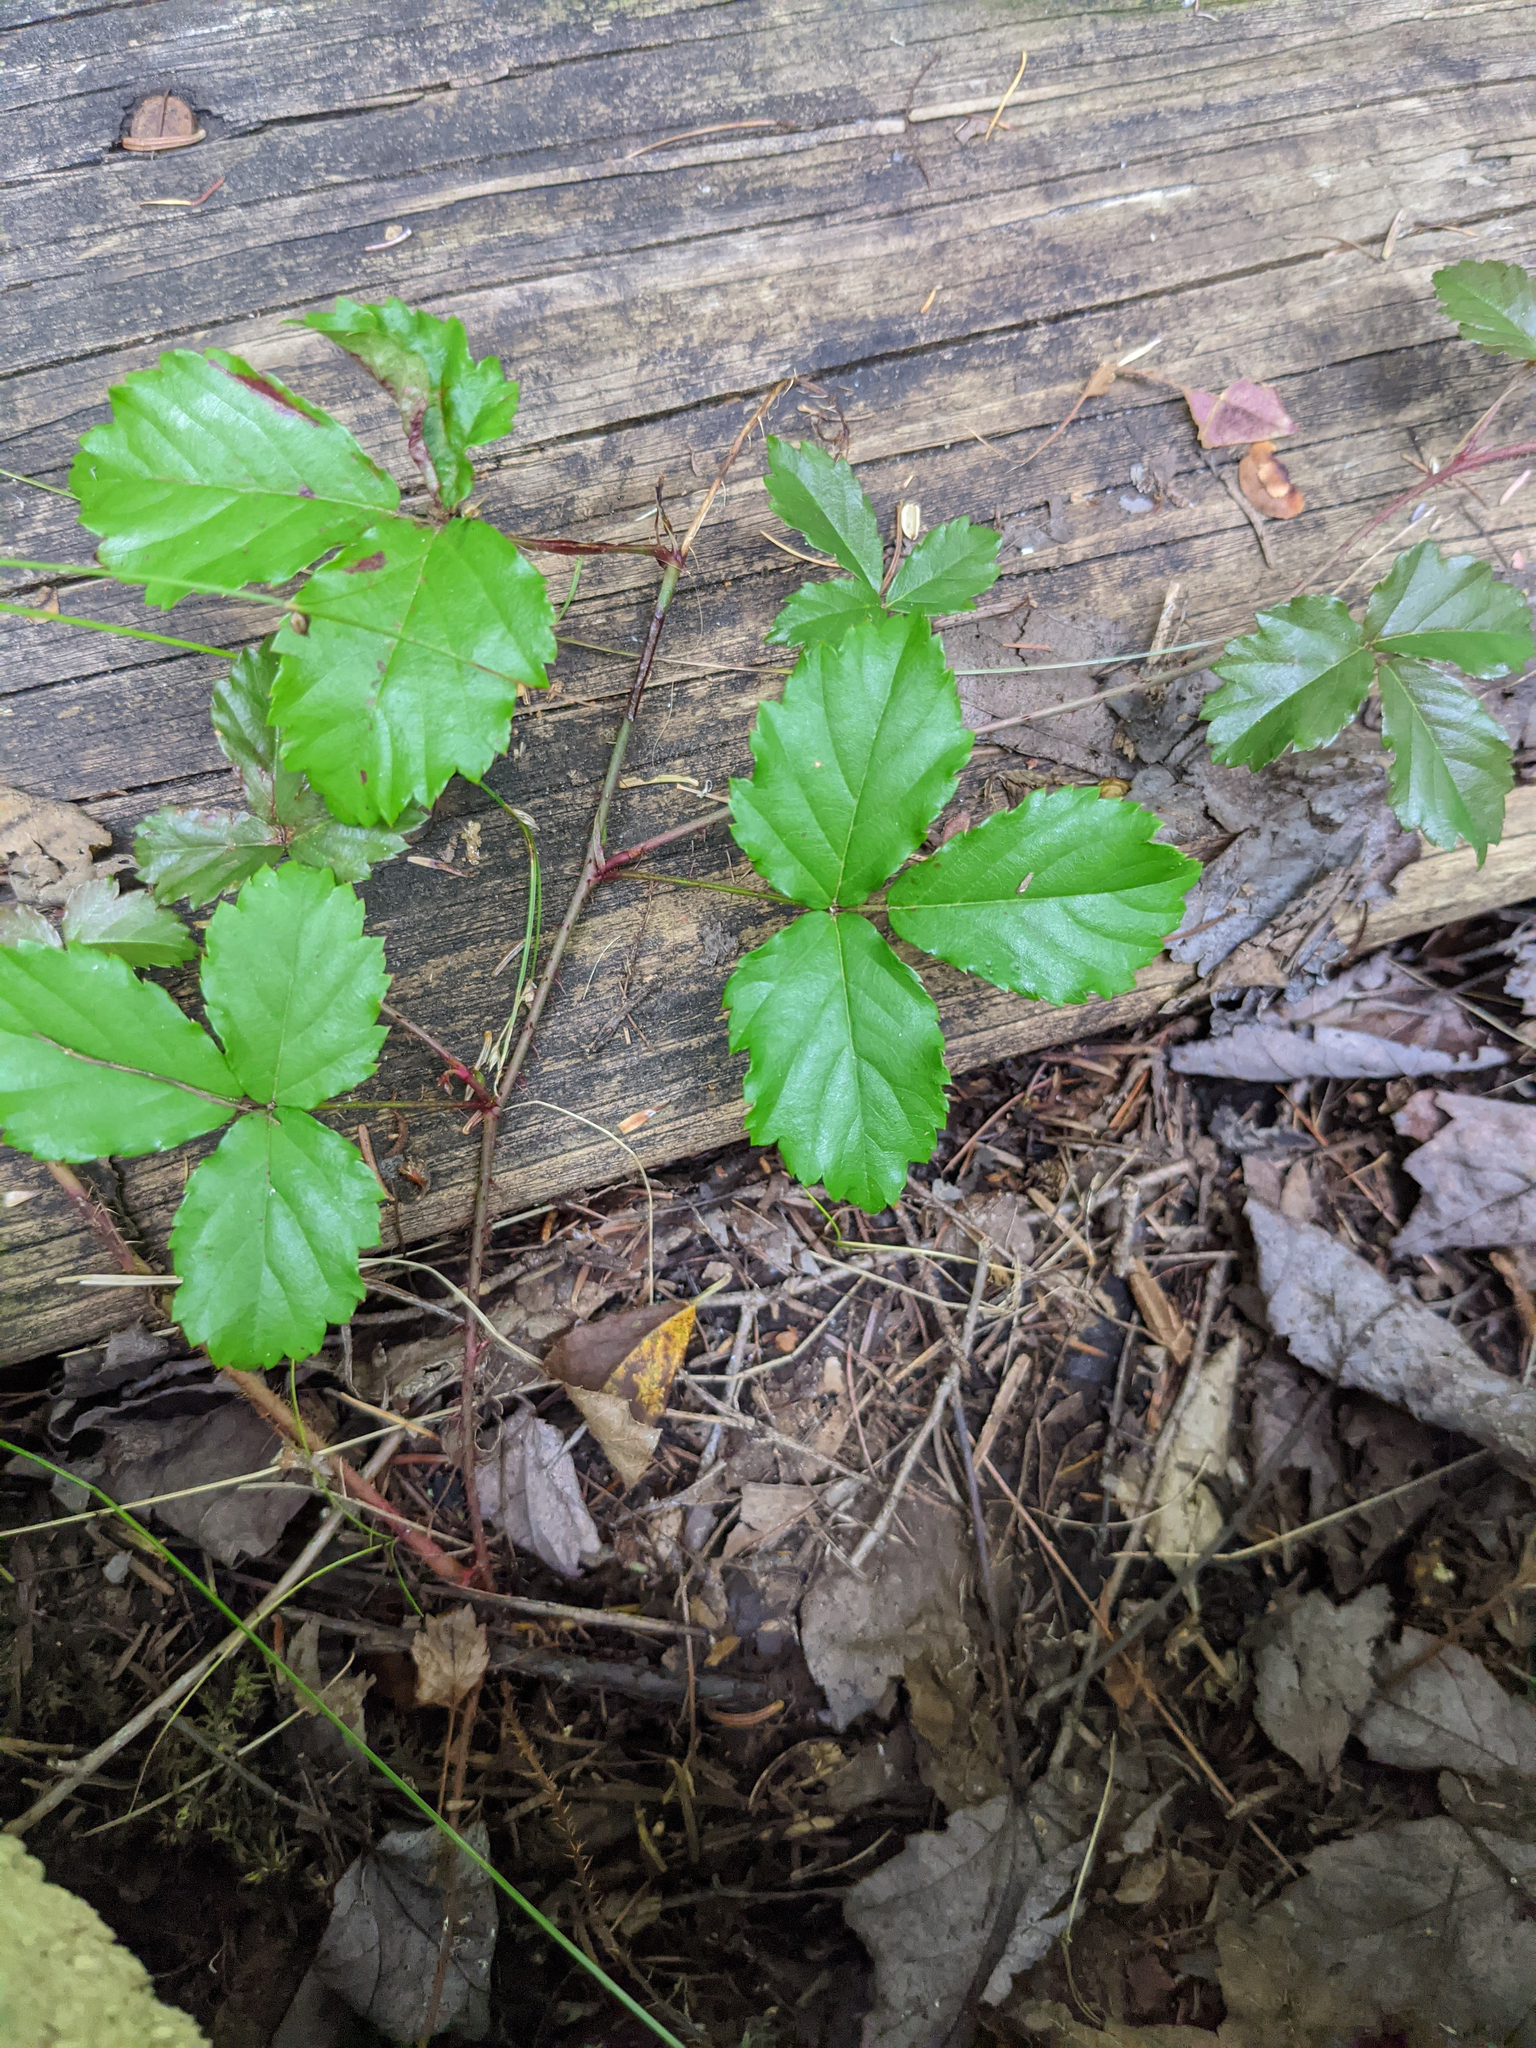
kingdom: Plantae
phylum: Tracheophyta
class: Magnoliopsida
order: Rosales
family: Rosaceae
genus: Rubus
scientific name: Rubus hispidus
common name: Running blackberry
